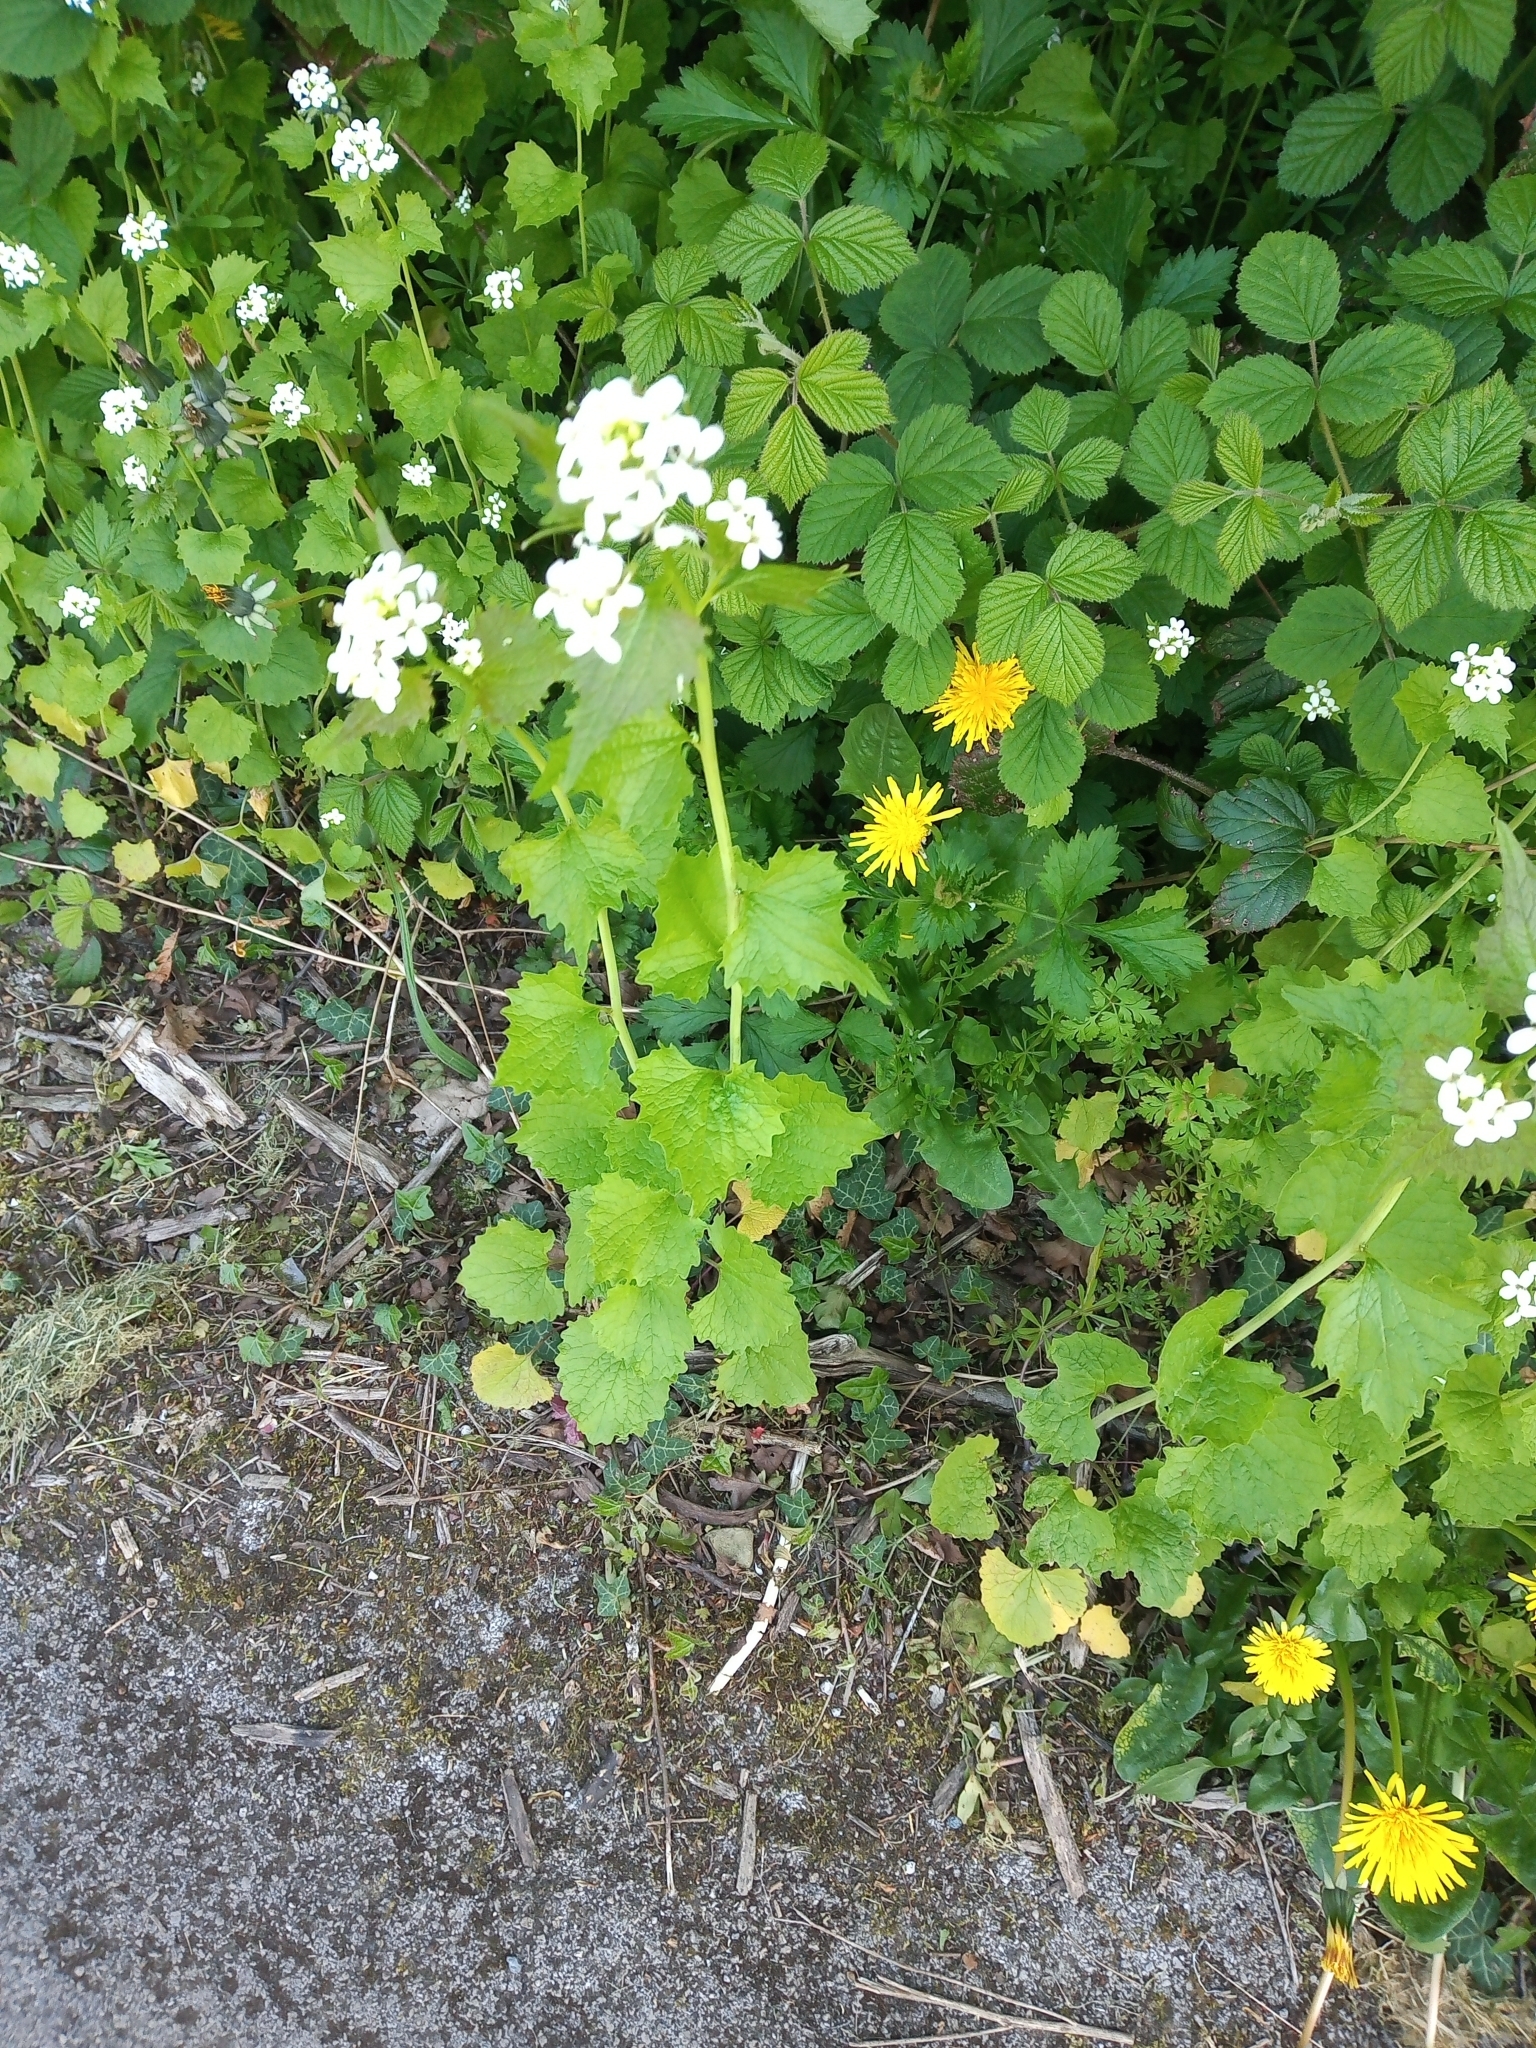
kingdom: Plantae
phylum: Tracheophyta
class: Magnoliopsida
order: Brassicales
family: Brassicaceae
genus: Alliaria
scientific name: Alliaria petiolata
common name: Garlic mustard
